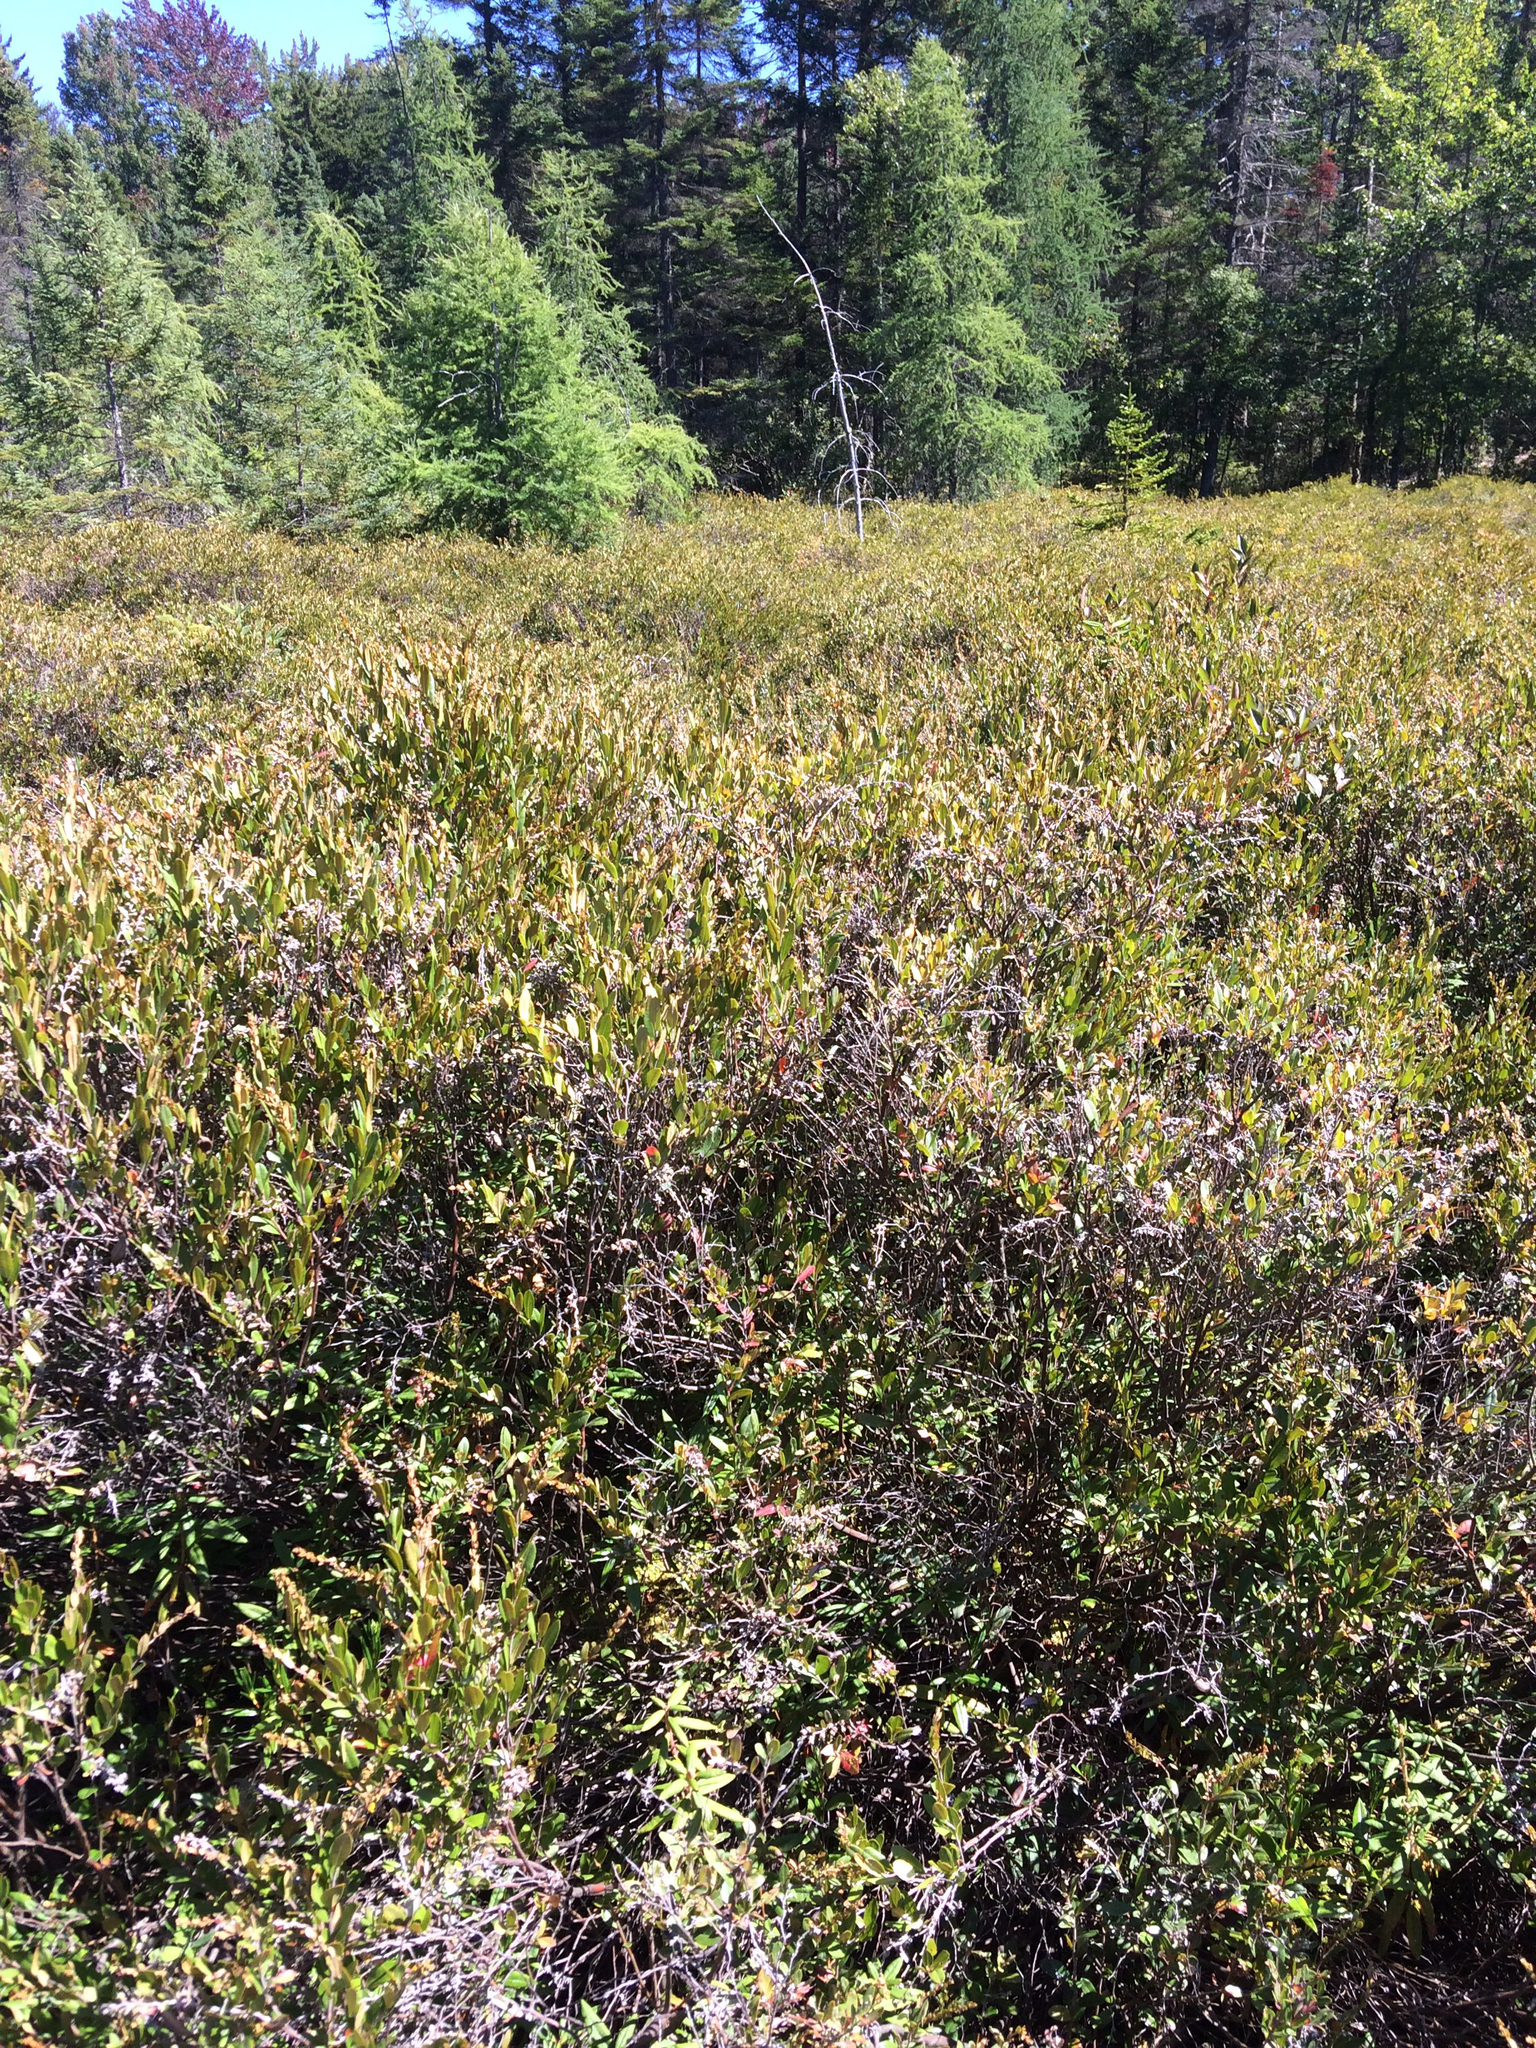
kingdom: Plantae
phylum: Tracheophyta
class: Magnoliopsida
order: Ericales
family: Ericaceae
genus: Chamaedaphne
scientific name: Chamaedaphne calyculata
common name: Leatherleaf
